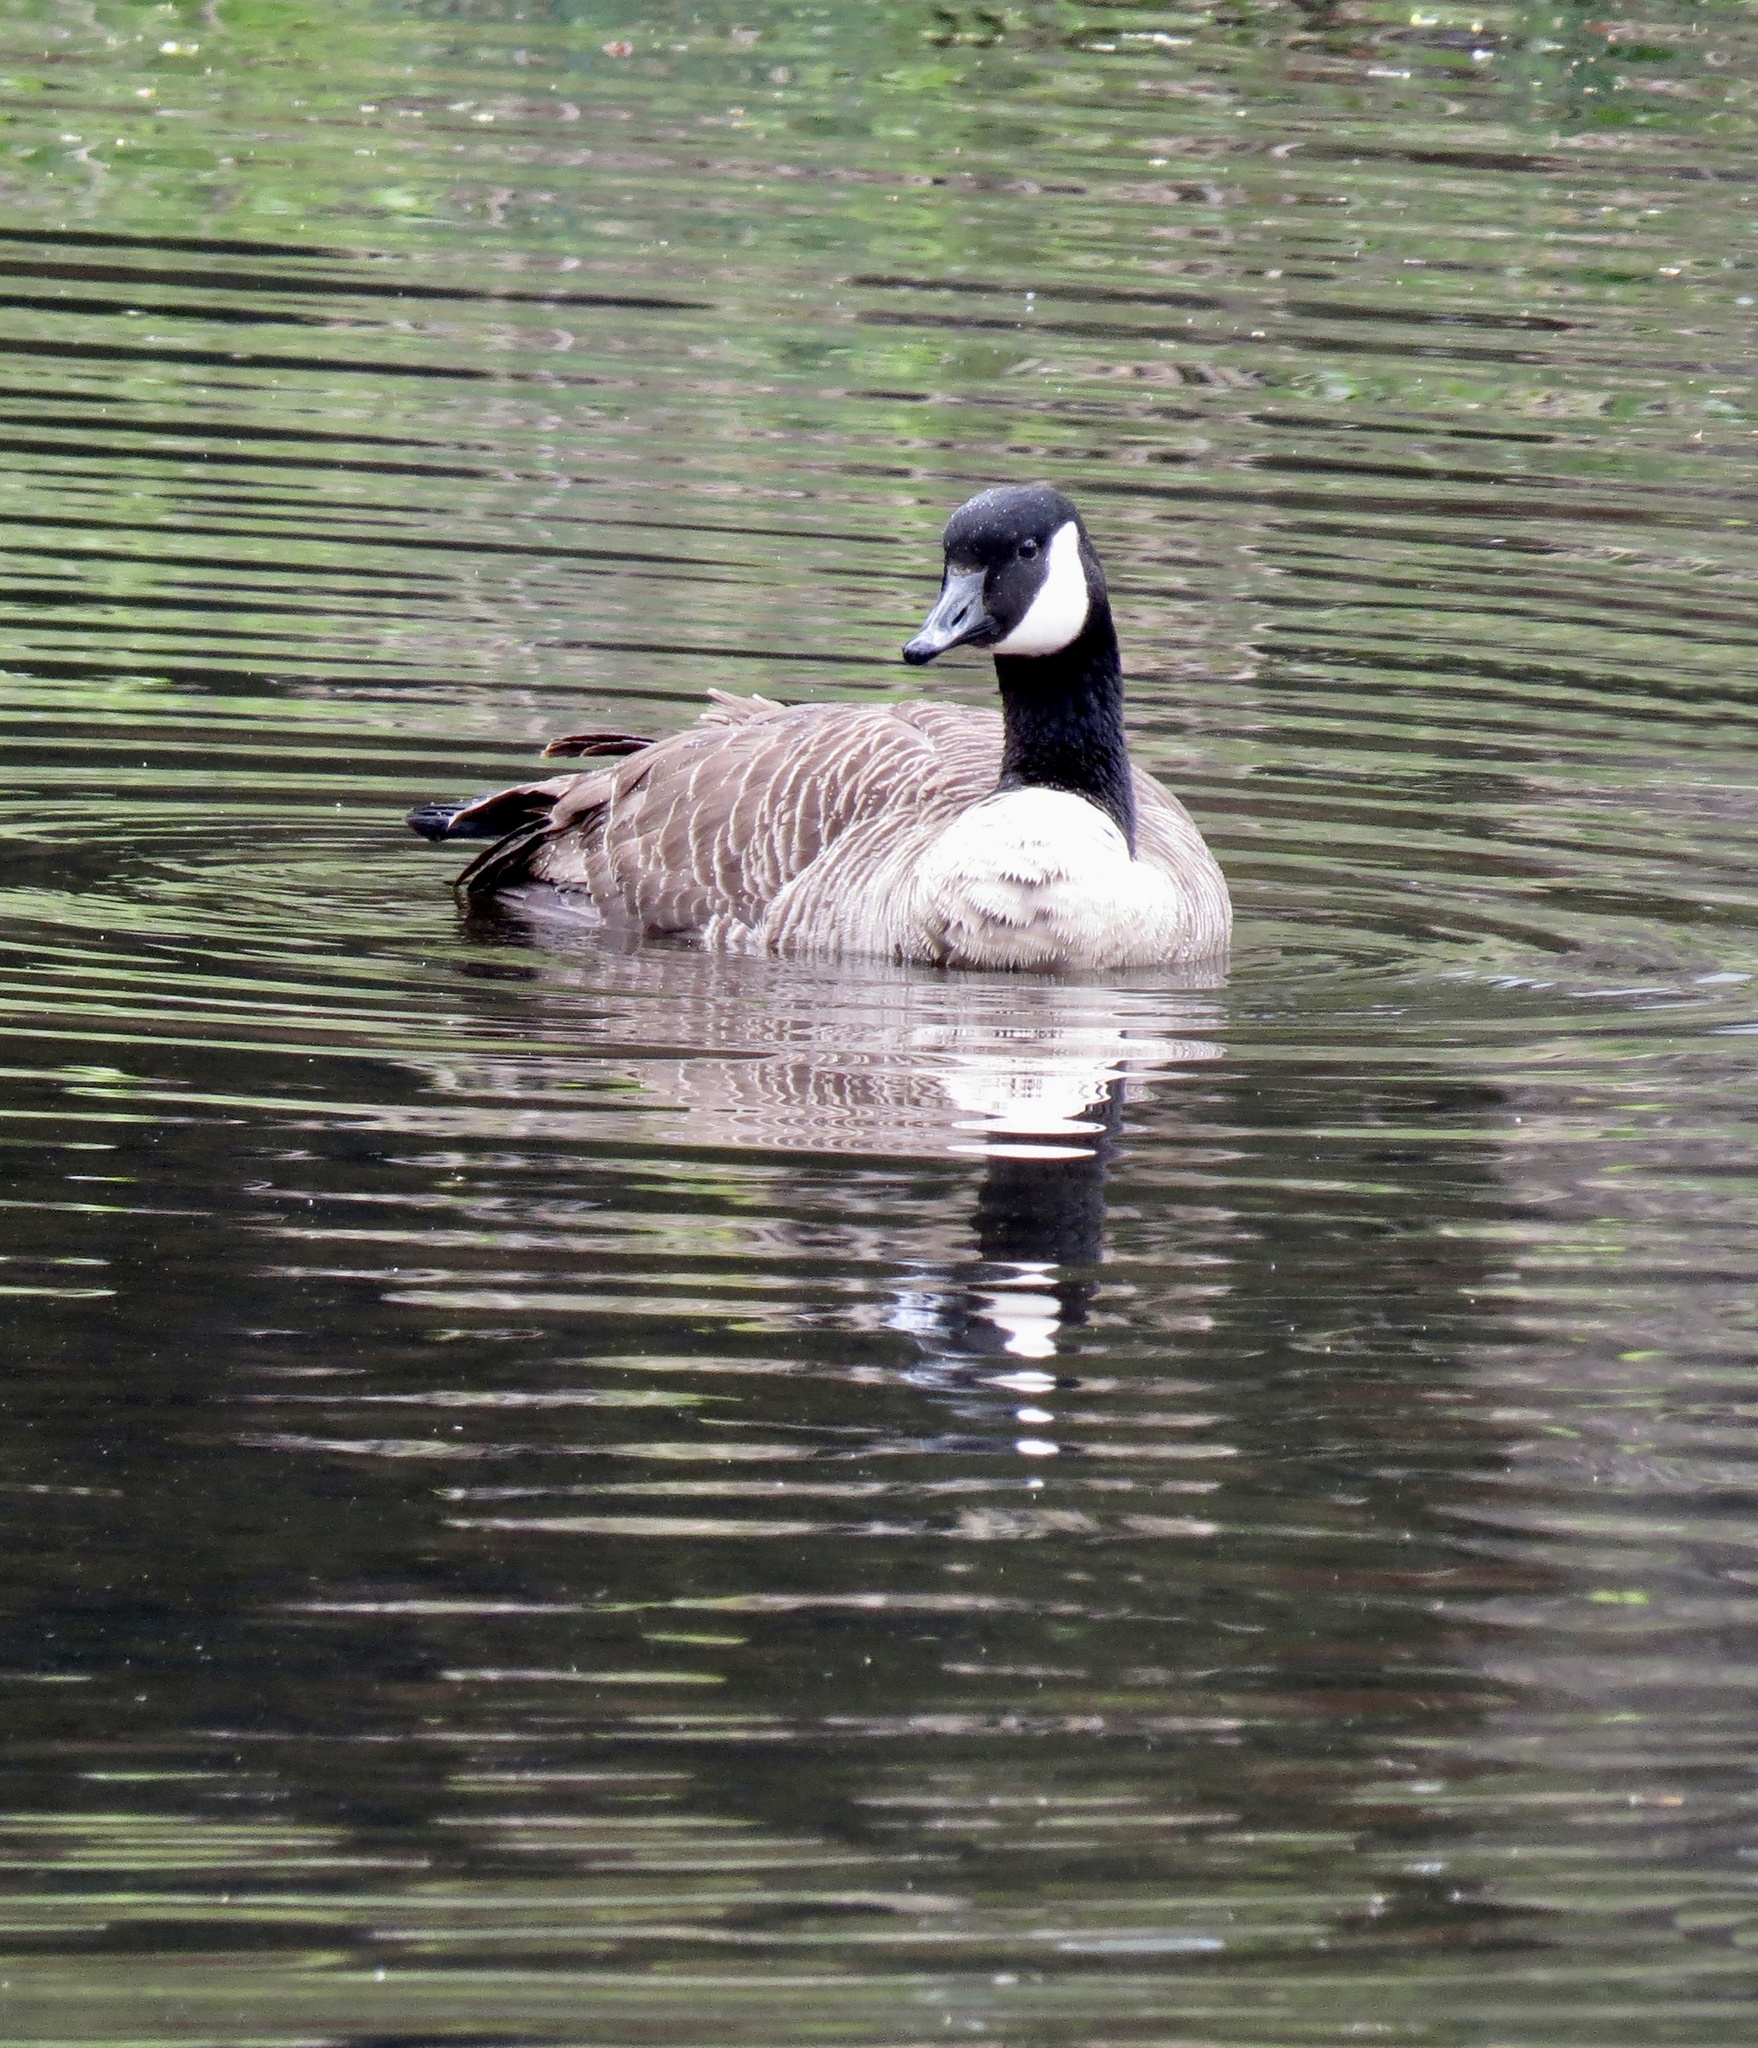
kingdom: Animalia
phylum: Chordata
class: Aves
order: Anseriformes
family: Anatidae
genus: Branta
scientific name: Branta canadensis
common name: Canada goose
